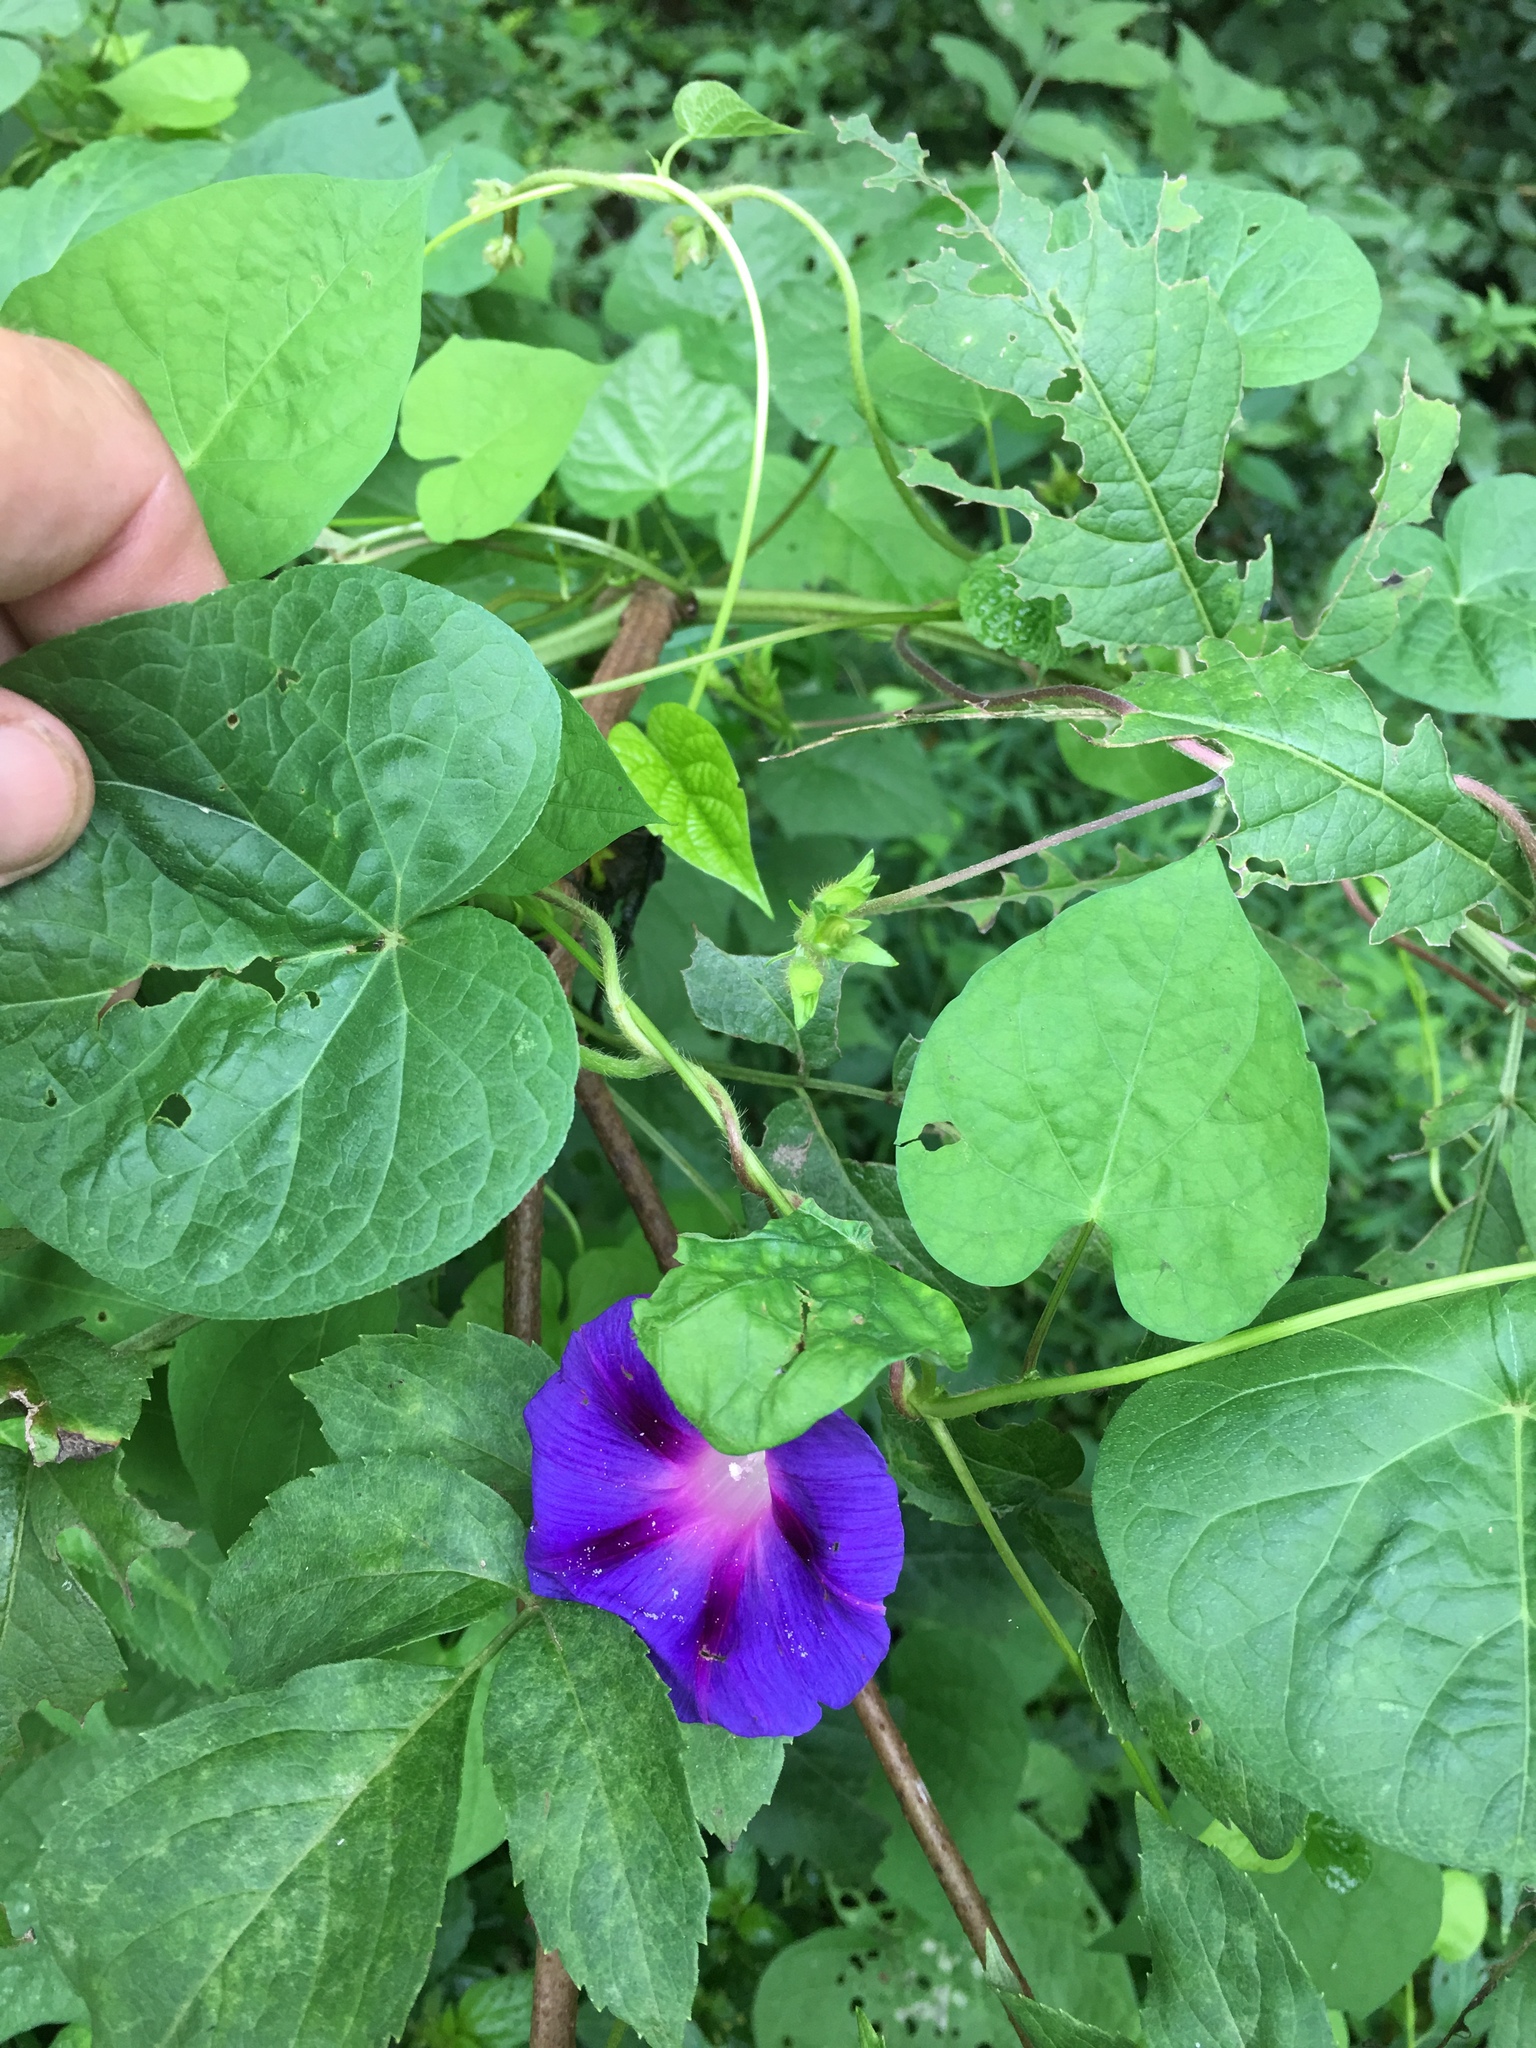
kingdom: Plantae
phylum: Tracheophyta
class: Magnoliopsida
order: Solanales
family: Convolvulaceae
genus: Ipomoea
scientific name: Ipomoea purpurea
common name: Common morning-glory
